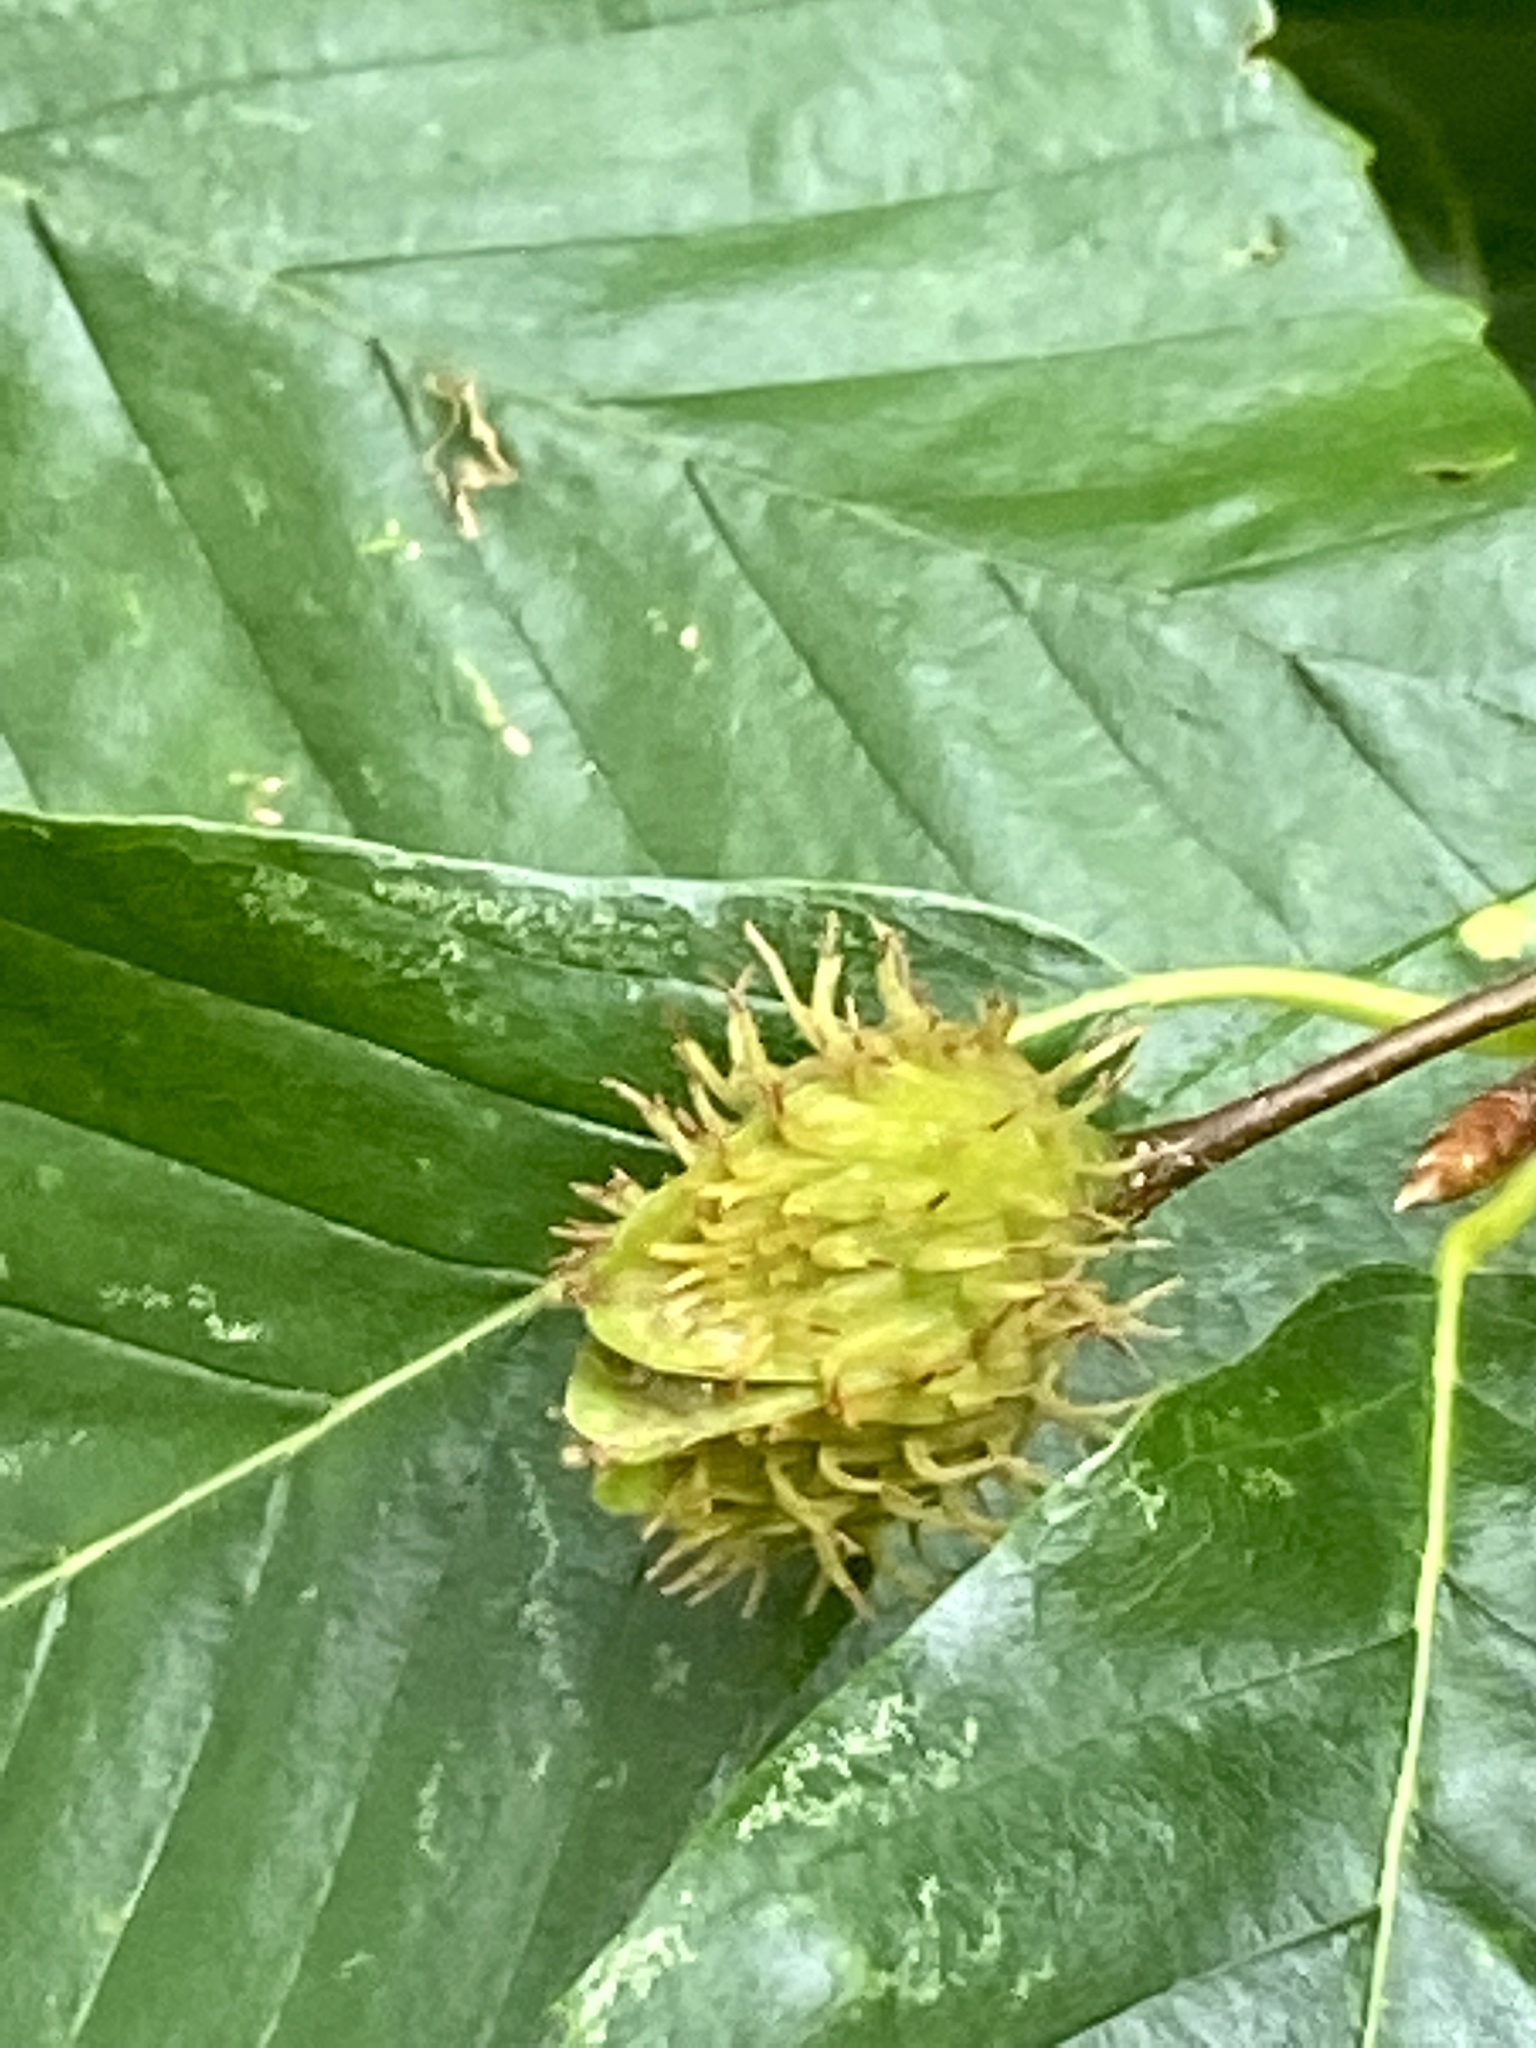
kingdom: Plantae
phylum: Tracheophyta
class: Magnoliopsida
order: Fagales
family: Fagaceae
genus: Fagus
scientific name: Fagus grandifolia
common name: American beech
